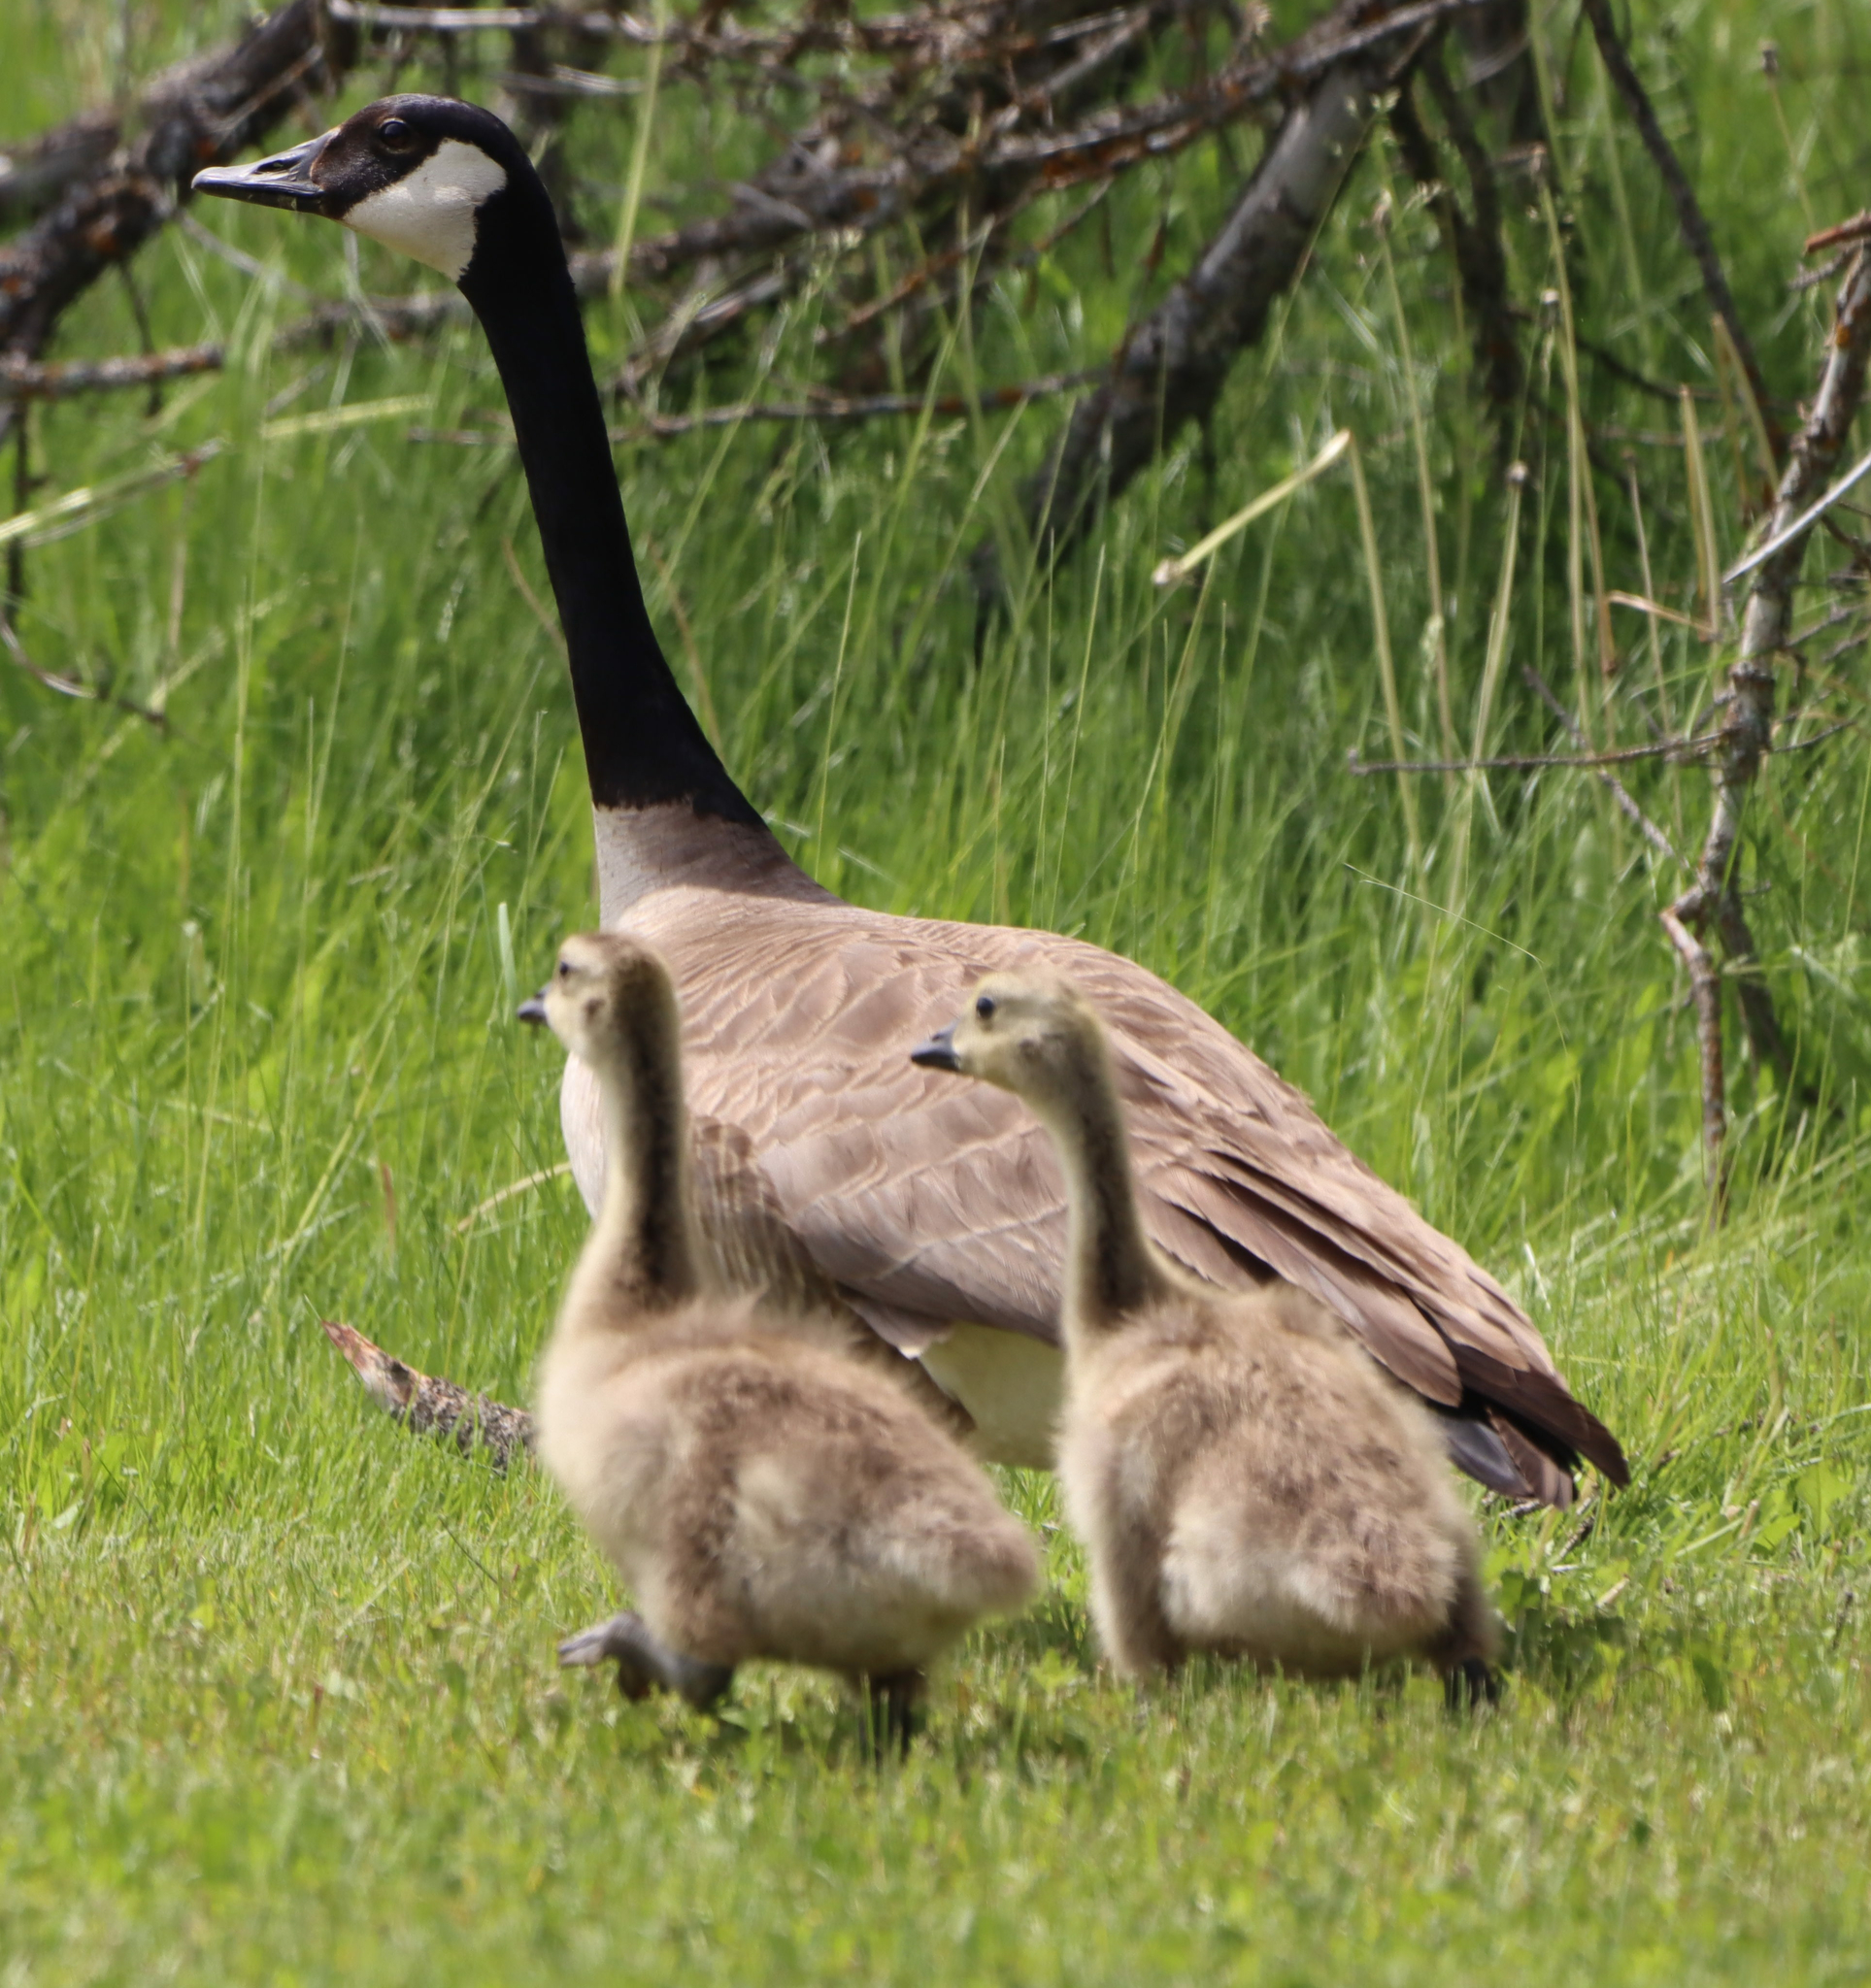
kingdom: Animalia
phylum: Chordata
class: Aves
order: Anseriformes
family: Anatidae
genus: Branta
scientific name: Branta canadensis
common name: Canada goose
